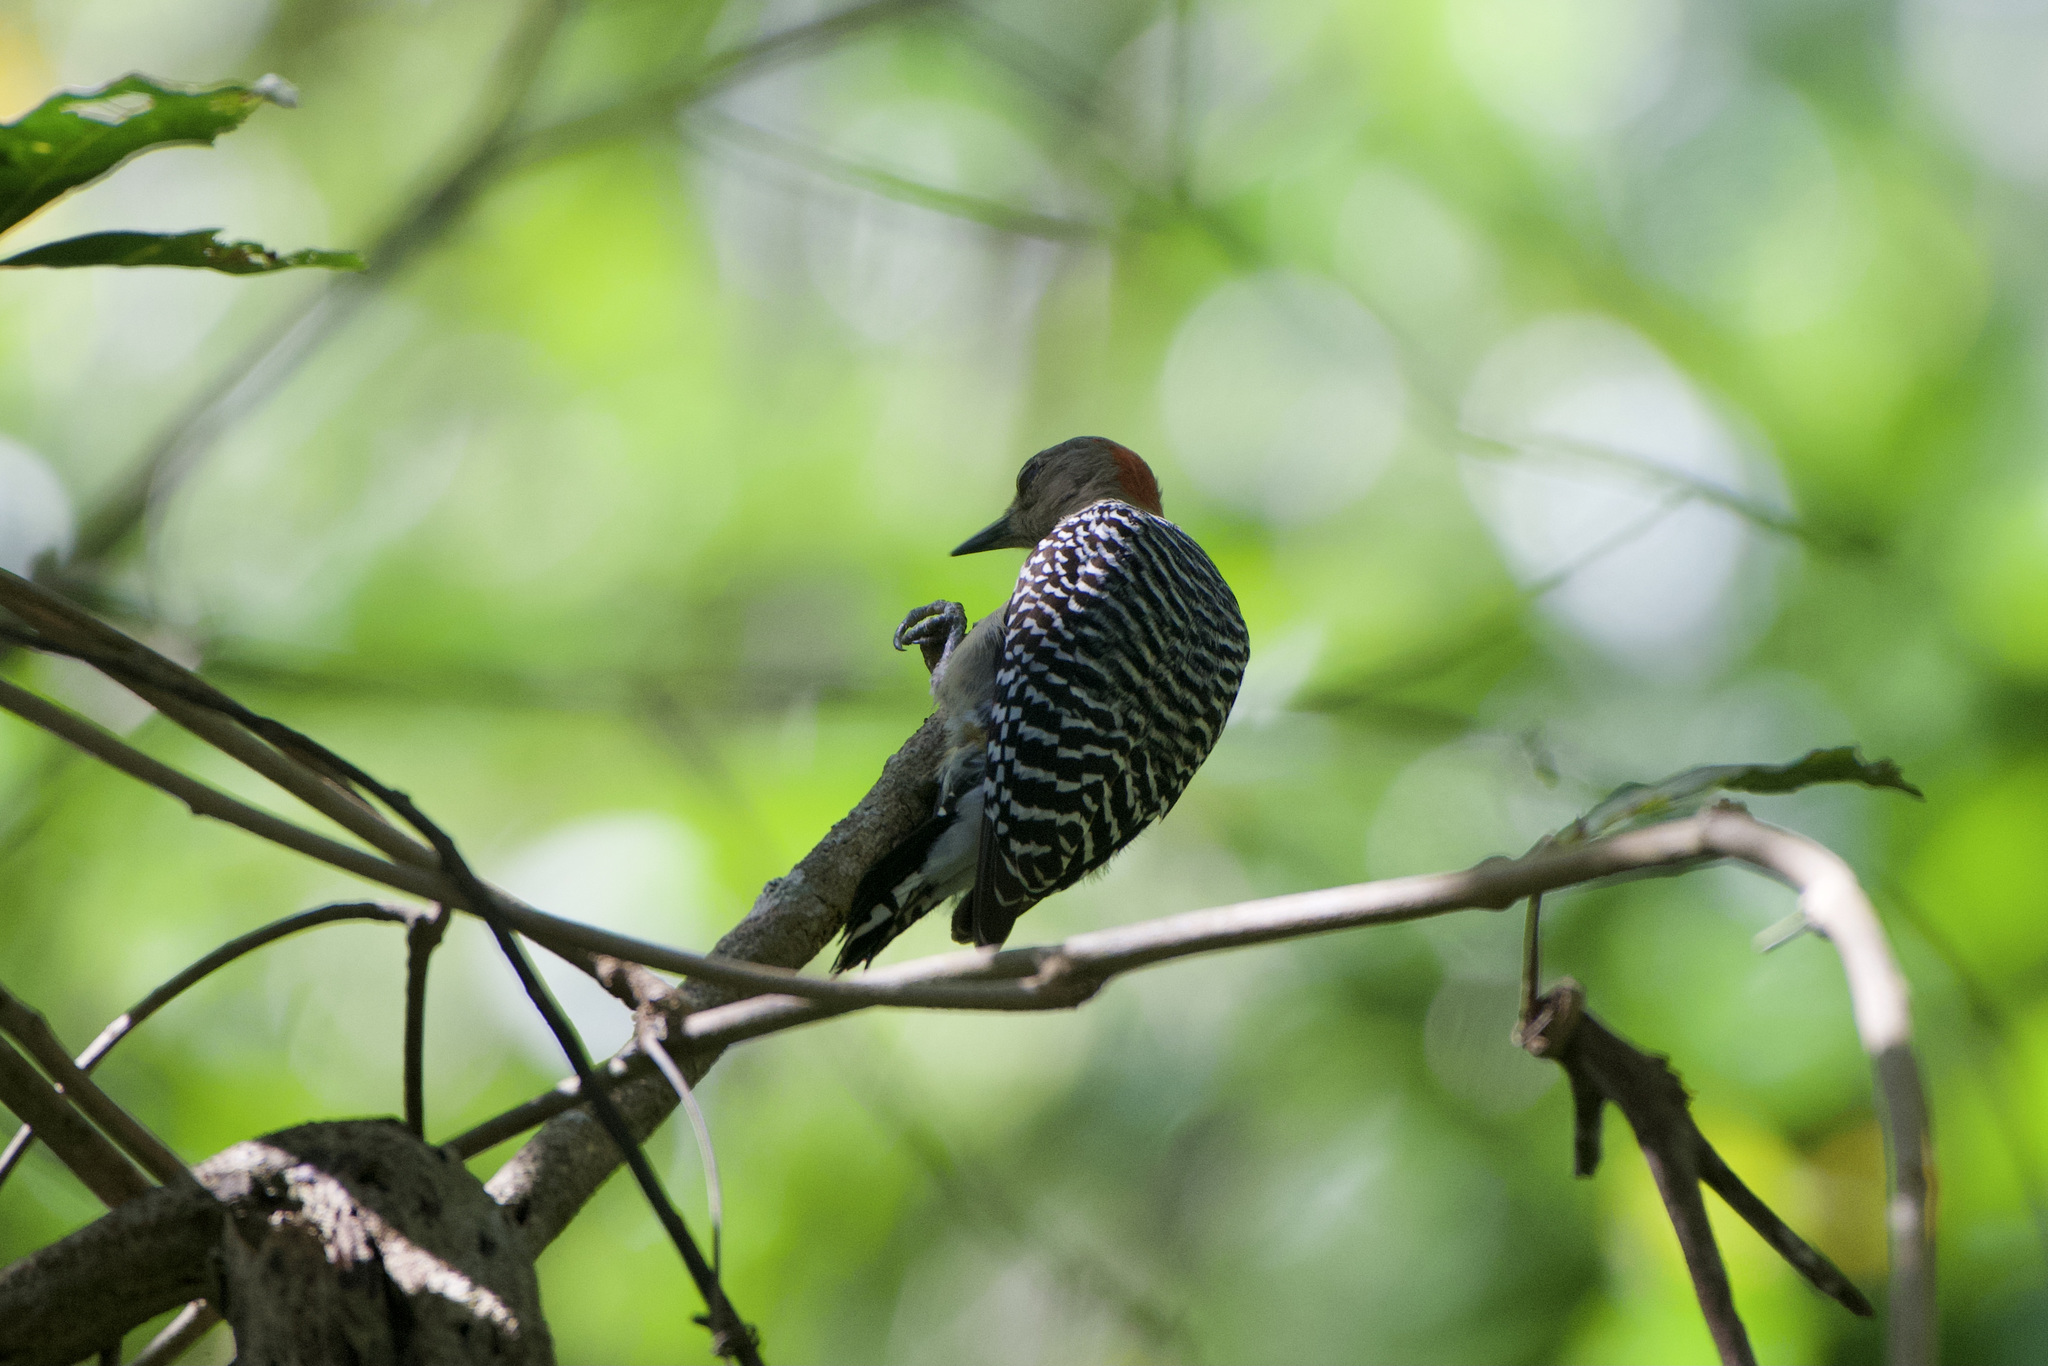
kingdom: Animalia
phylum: Chordata
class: Aves
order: Piciformes
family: Picidae
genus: Melanerpes
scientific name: Melanerpes rubricapillus
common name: Red-crowned woodpecker
